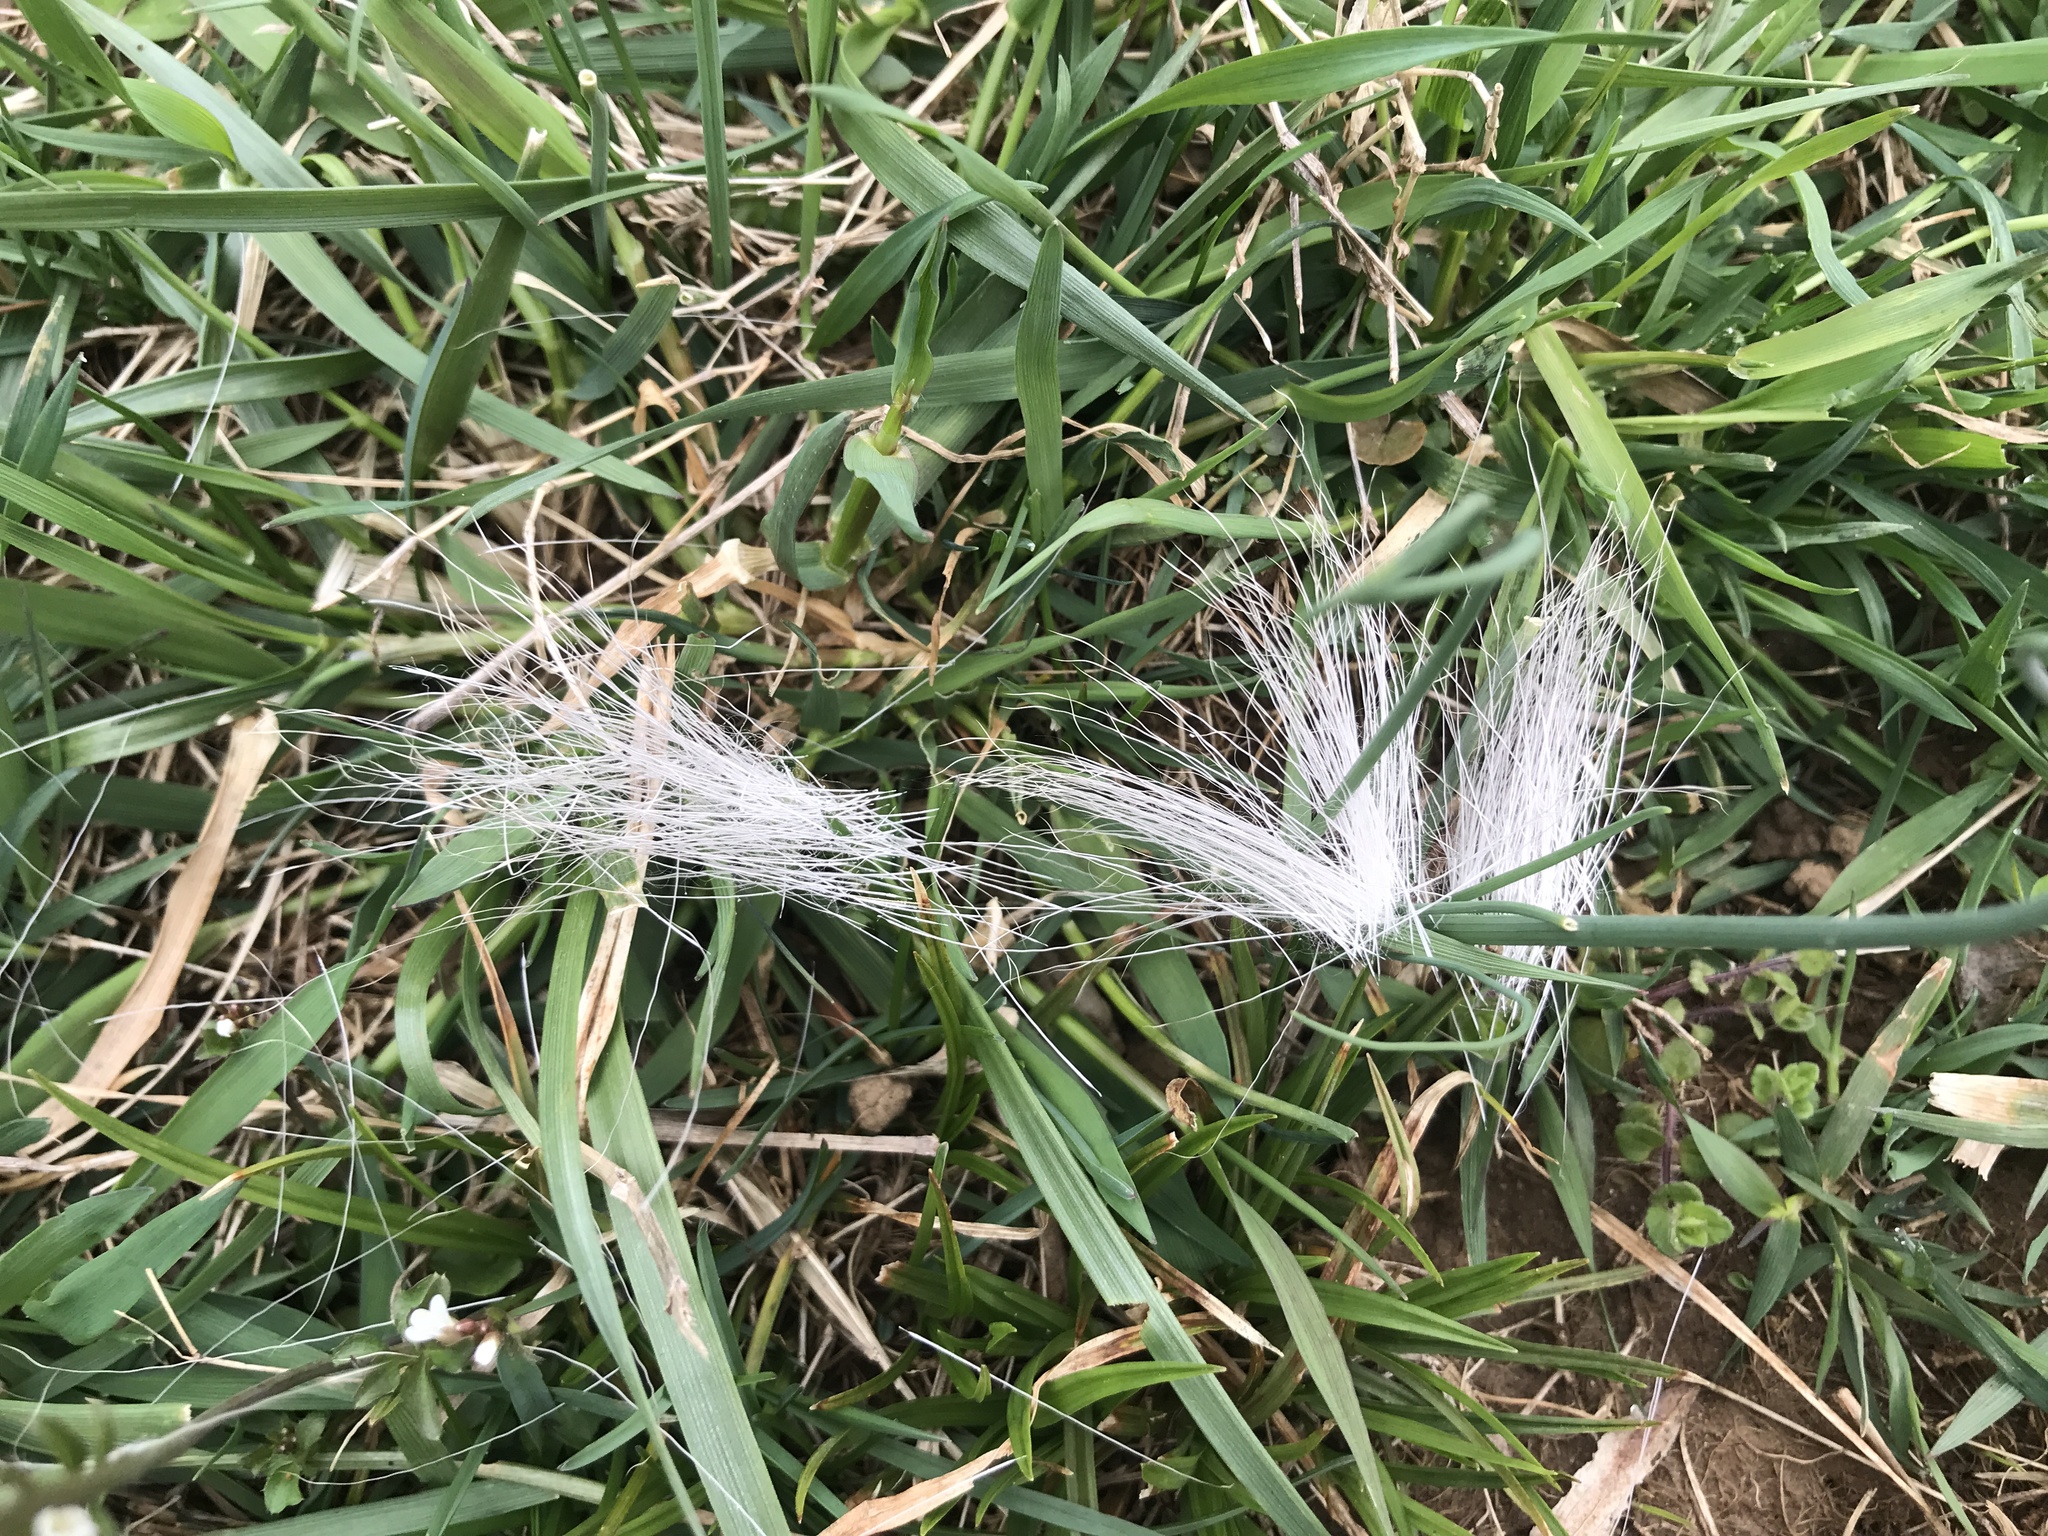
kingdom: Animalia
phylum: Chordata
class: Mammalia
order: Artiodactyla
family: Cervidae
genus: Odocoileus
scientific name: Odocoileus virginianus
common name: White-tailed deer
